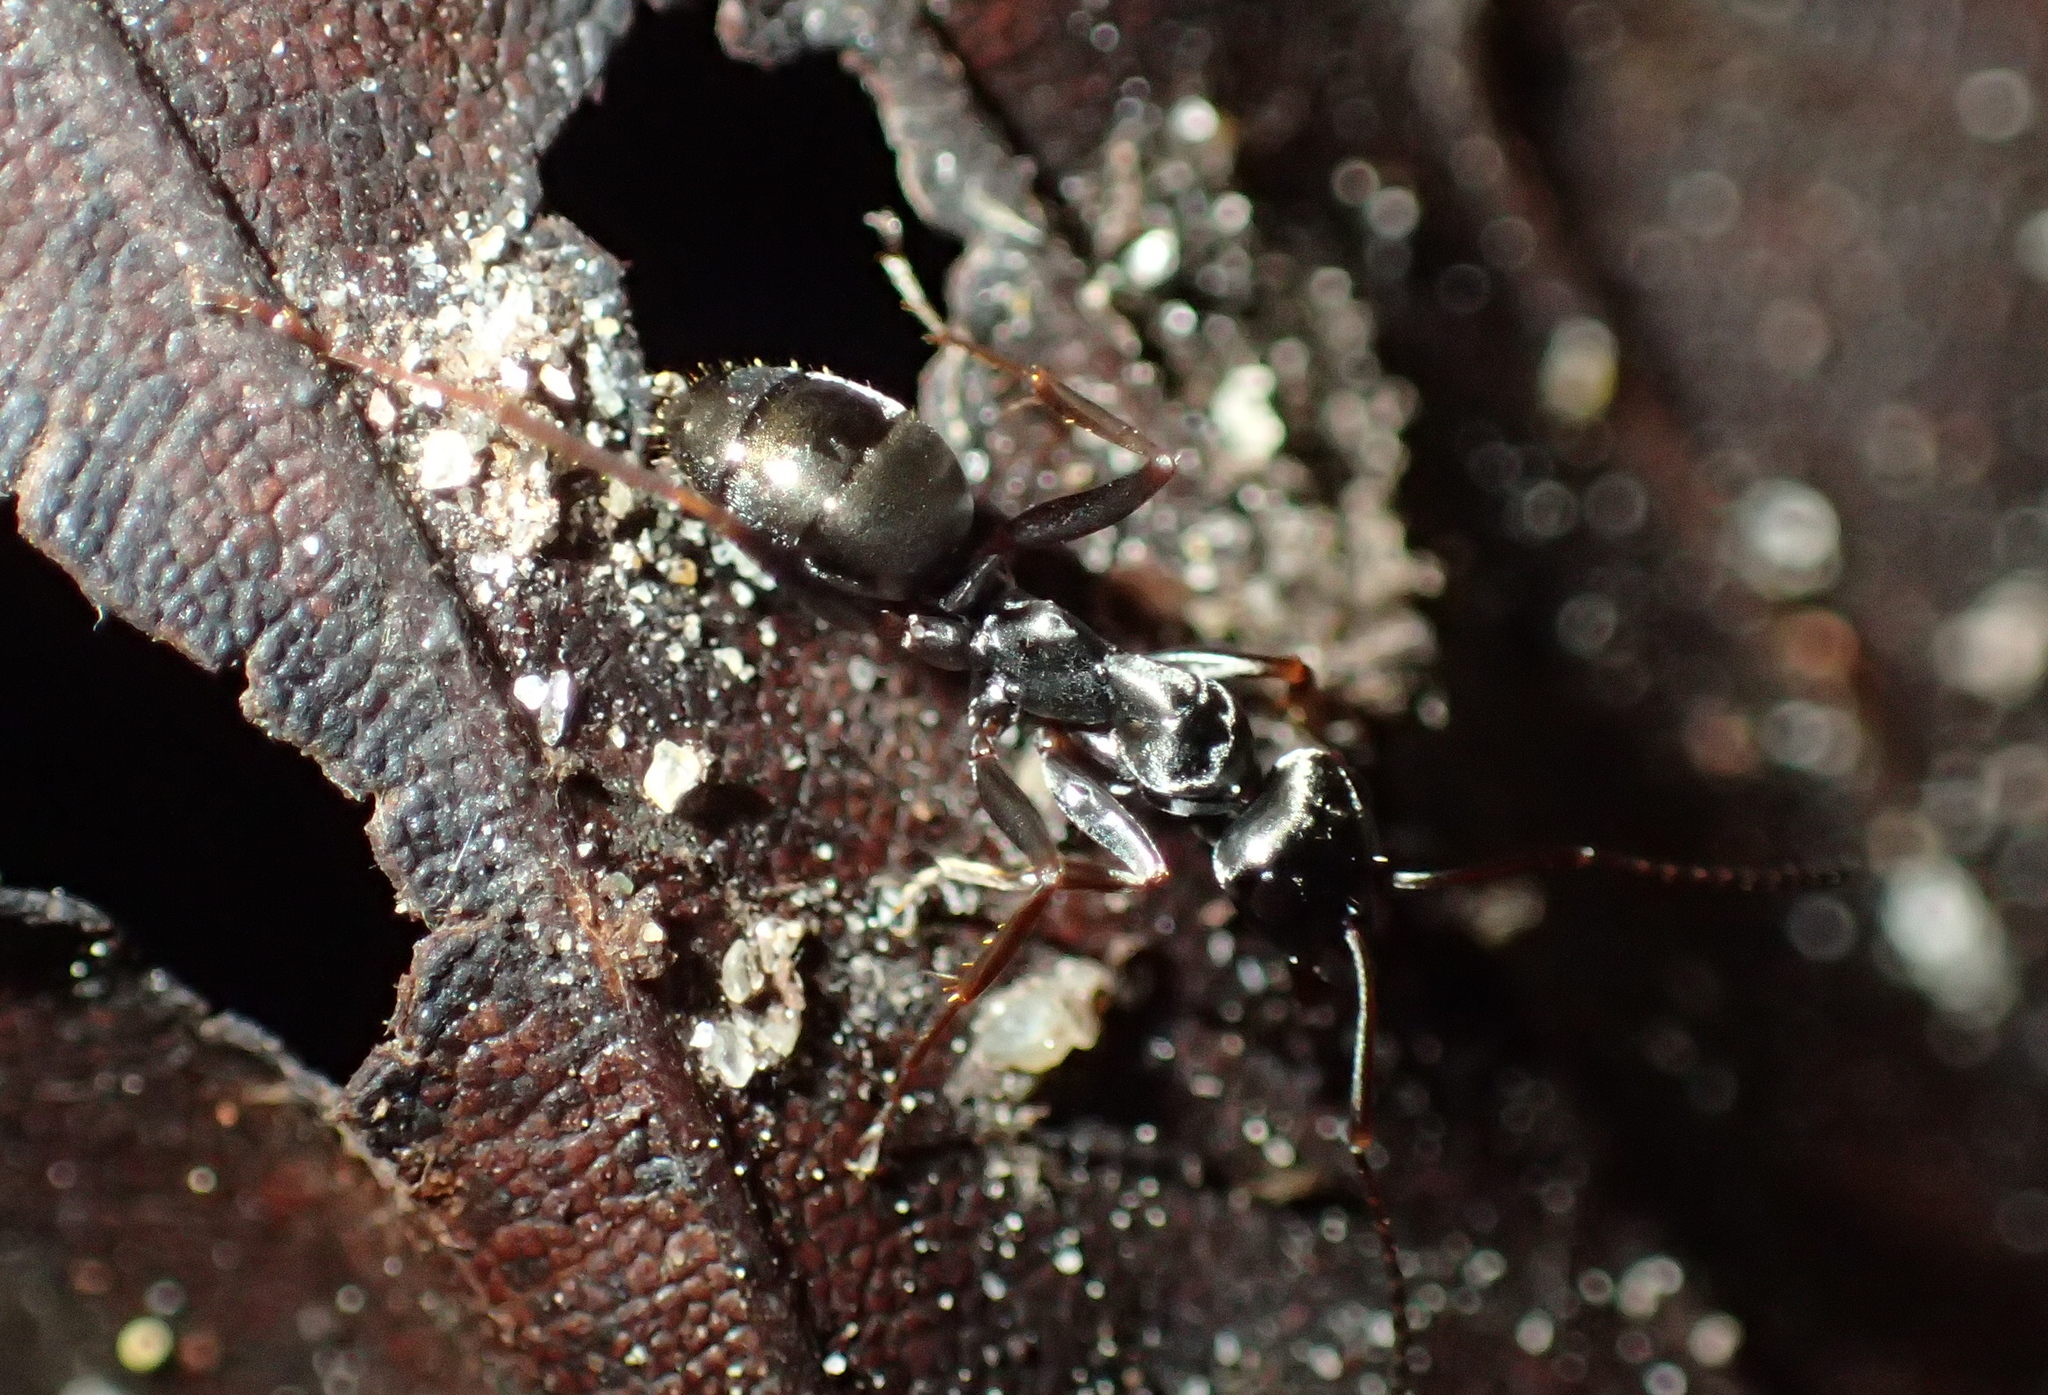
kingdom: Animalia
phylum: Arthropoda
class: Insecta
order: Hymenoptera
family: Formicidae
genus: Formica
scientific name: Formica fusca
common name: Silky ant
